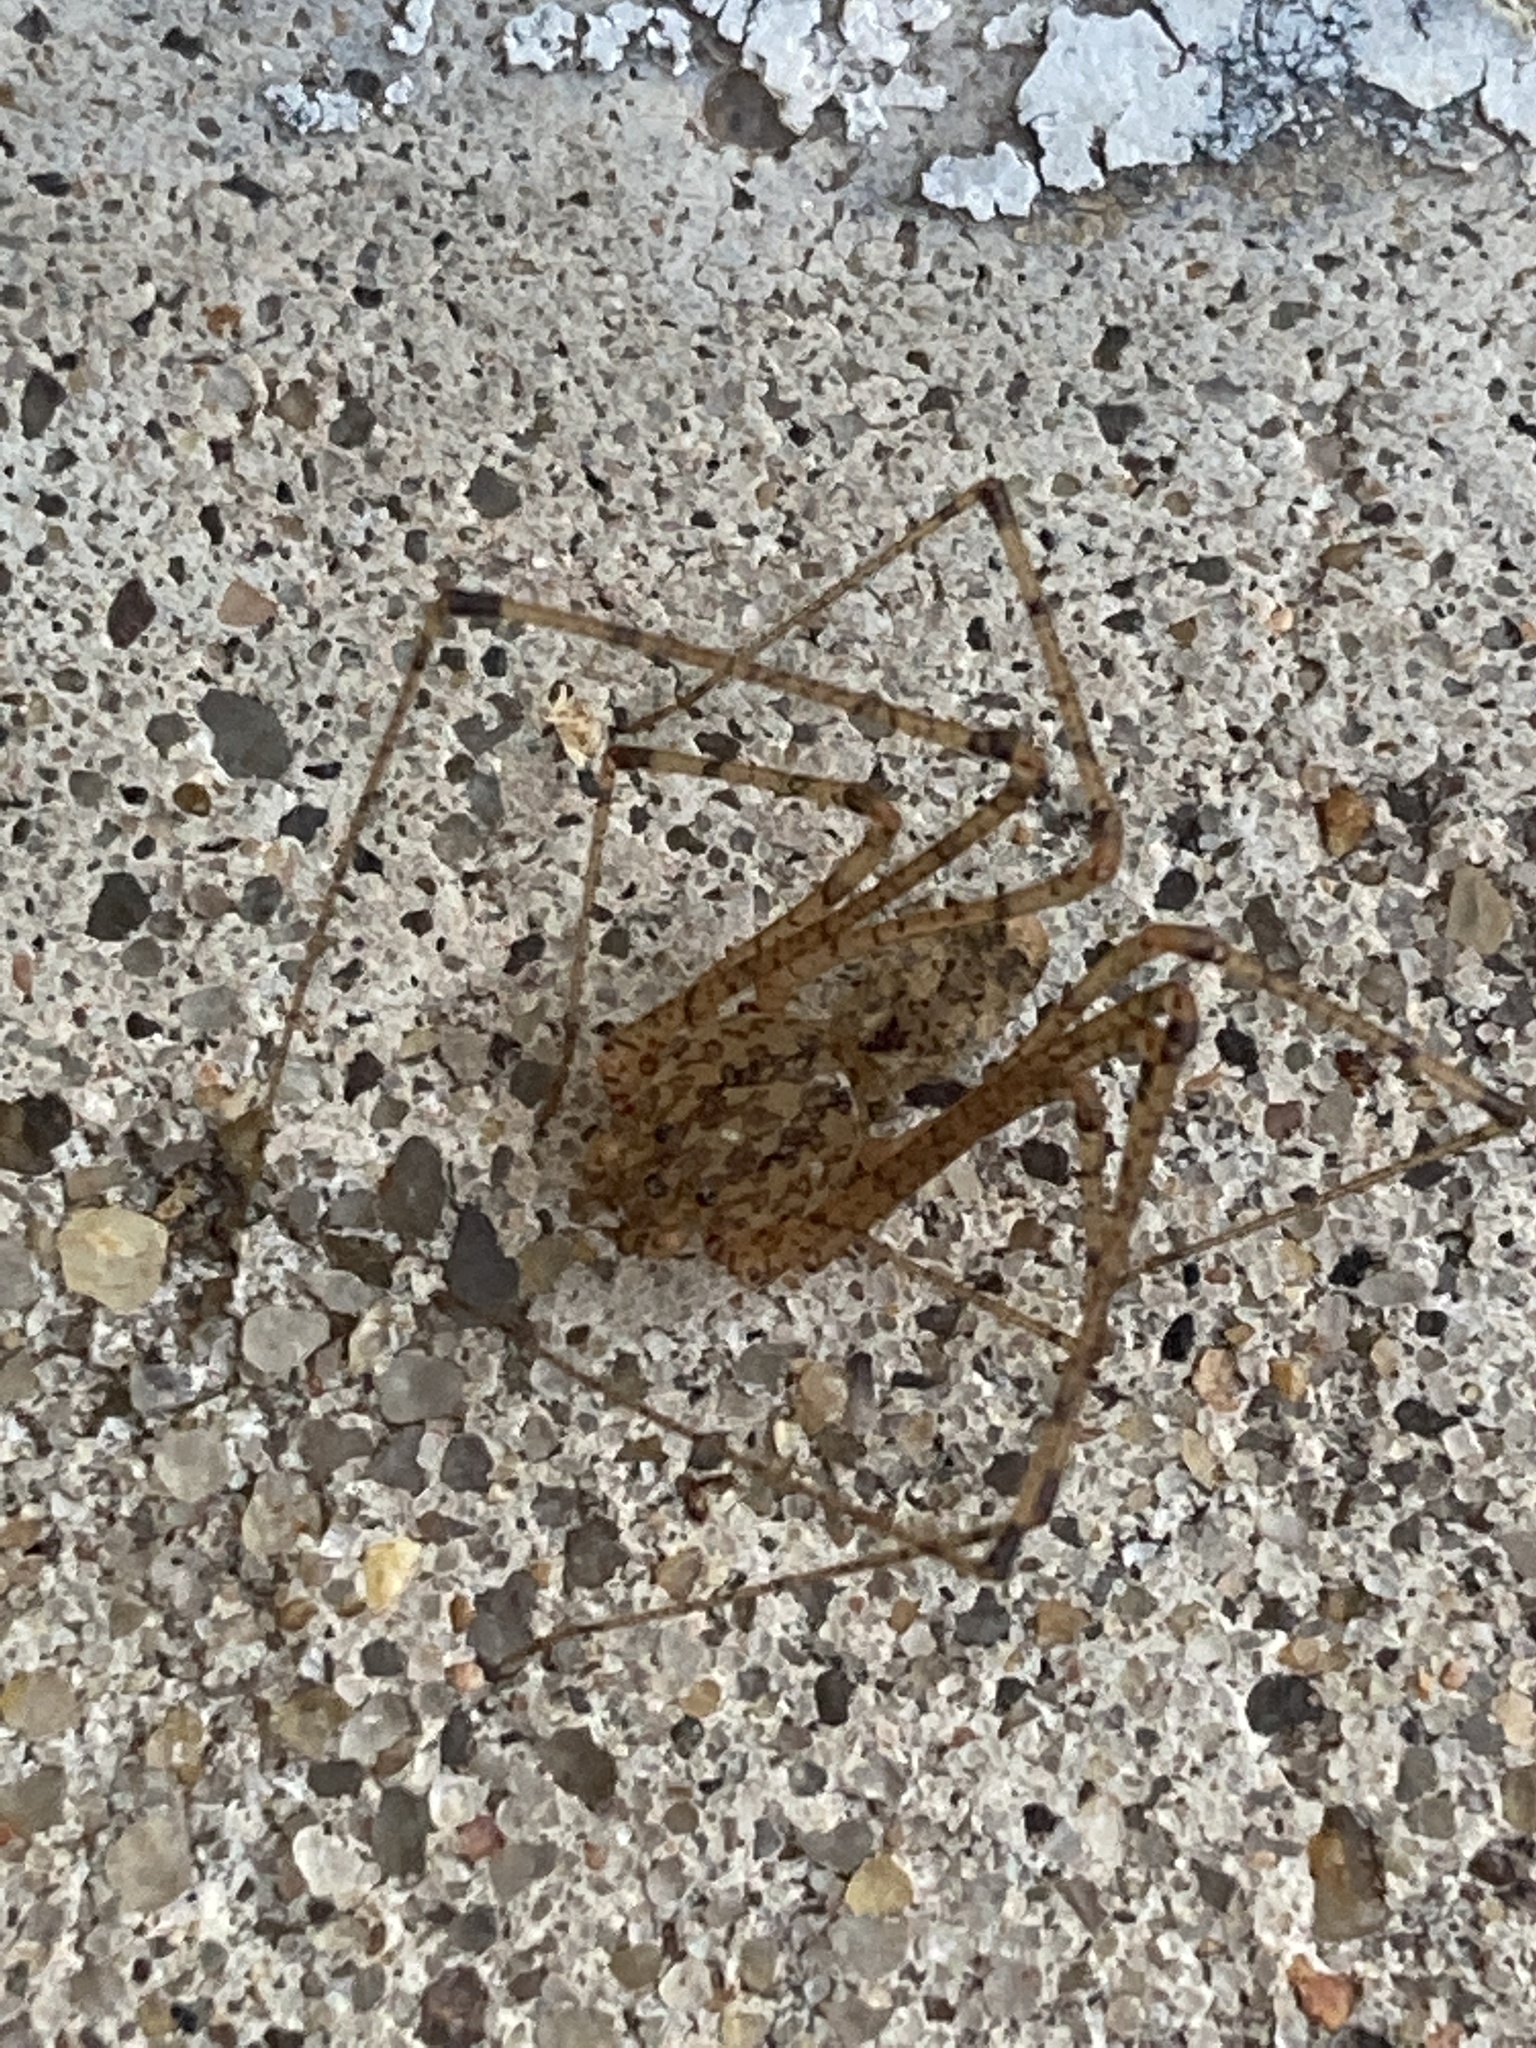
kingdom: Animalia
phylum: Arthropoda
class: Arachnida
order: Araneae
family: Scytodidae
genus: Scytodes
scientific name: Scytodes atlacoya
